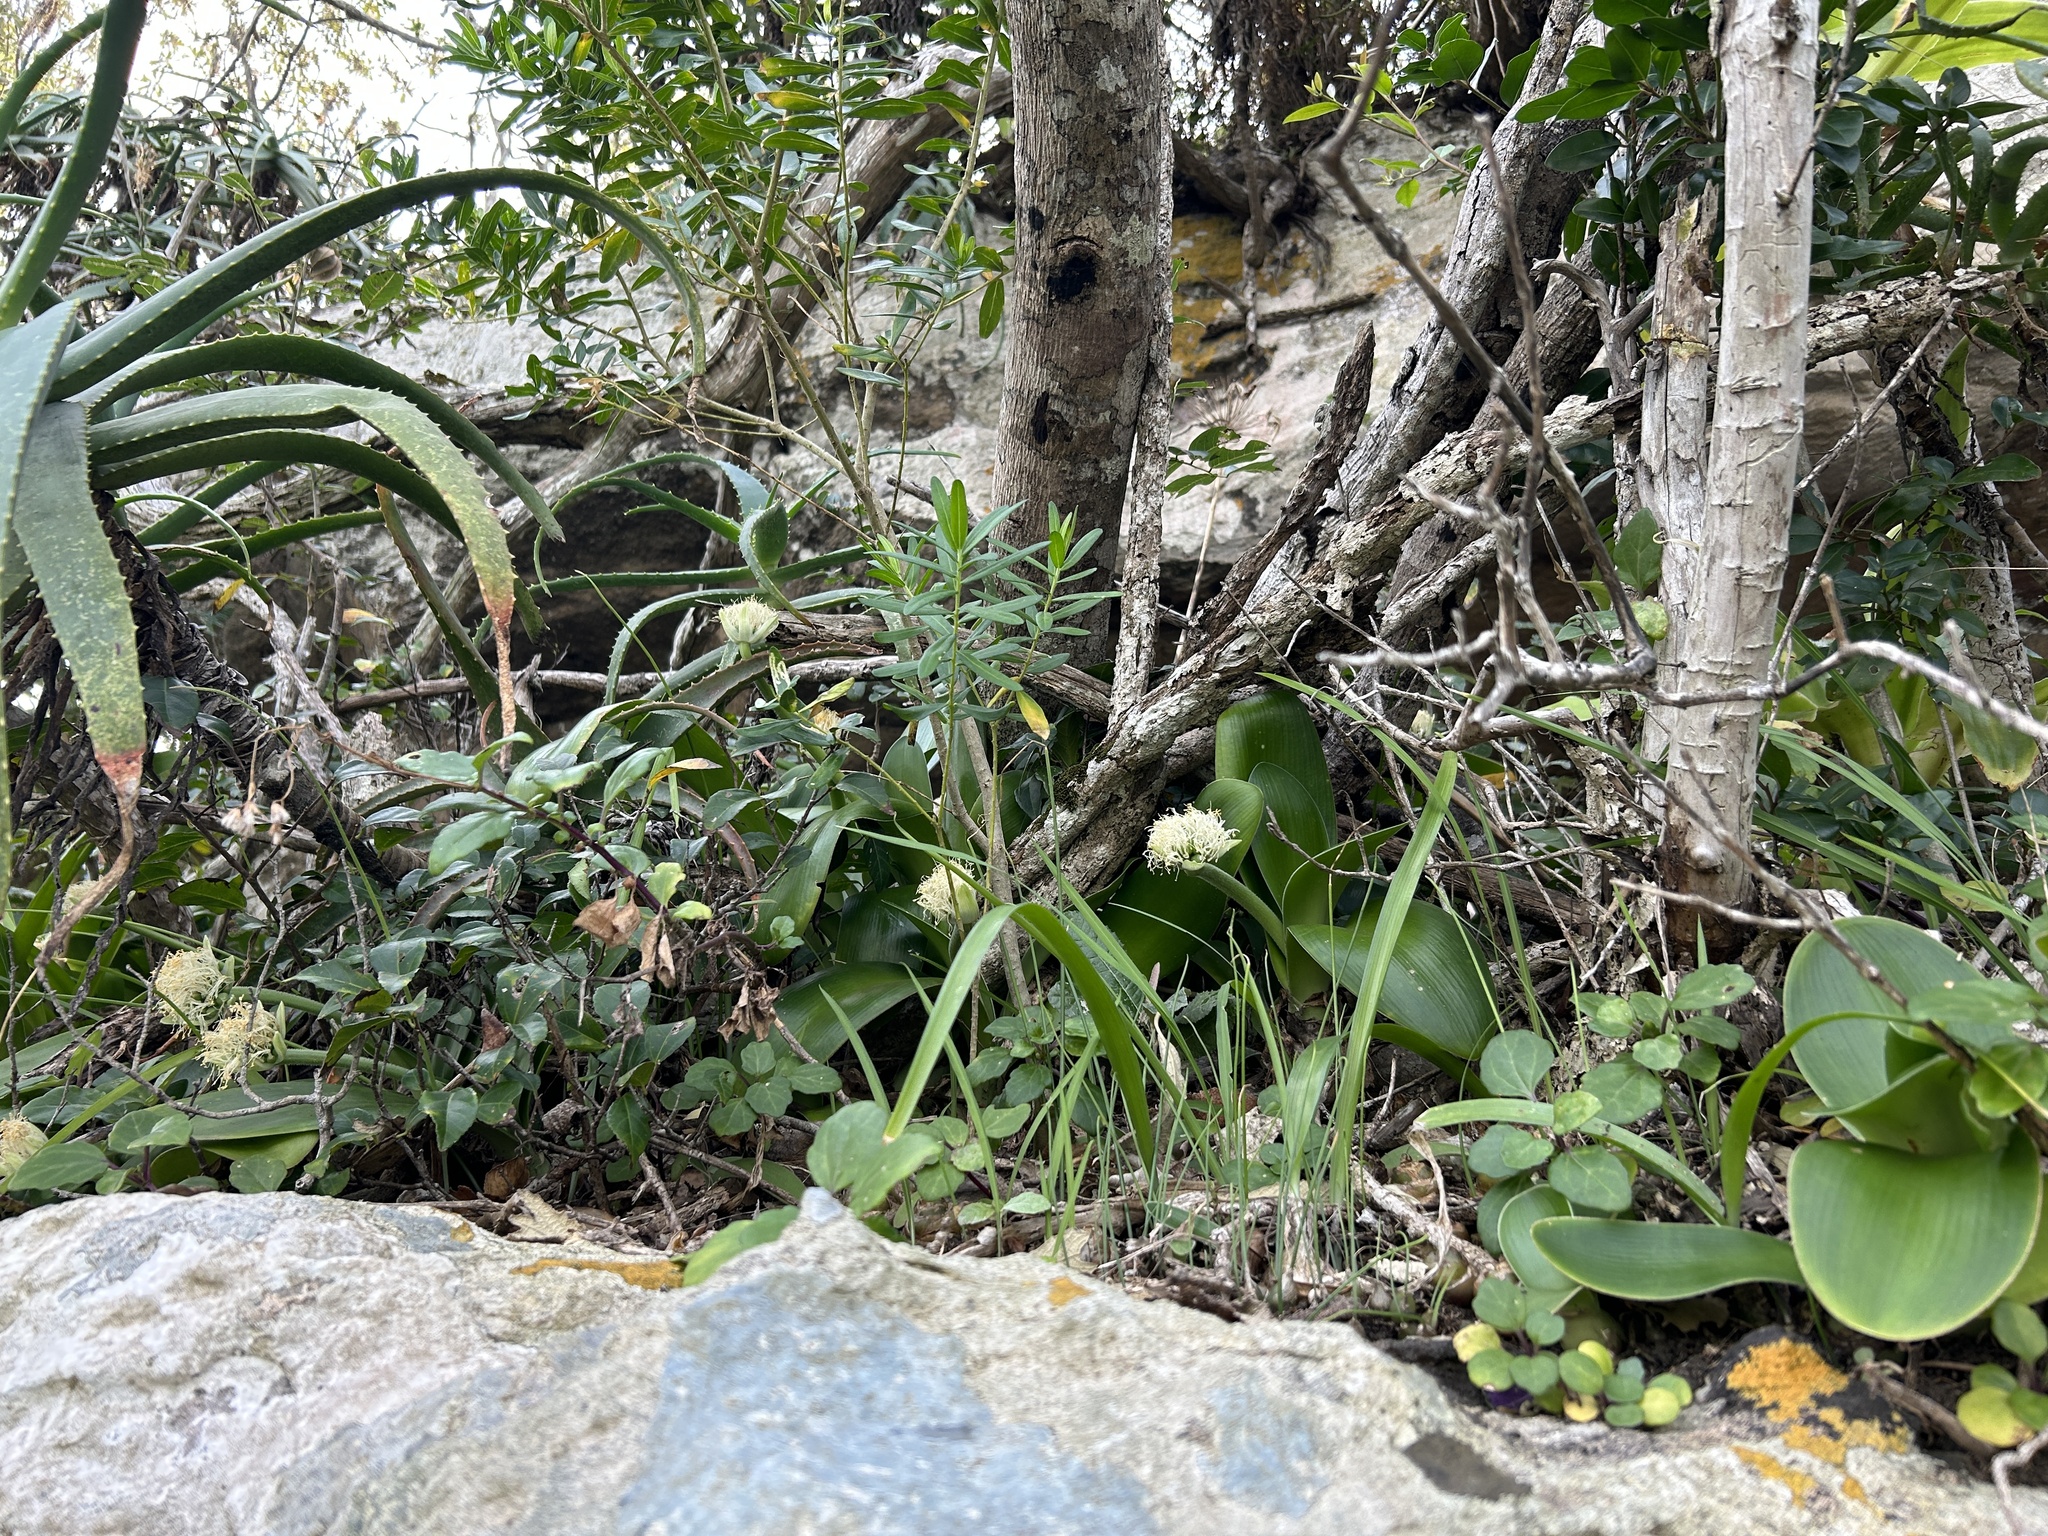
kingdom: Plantae
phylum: Tracheophyta
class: Liliopsida
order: Asparagales
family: Amaryllidaceae
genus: Haemanthus
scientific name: Haemanthus albiflos
